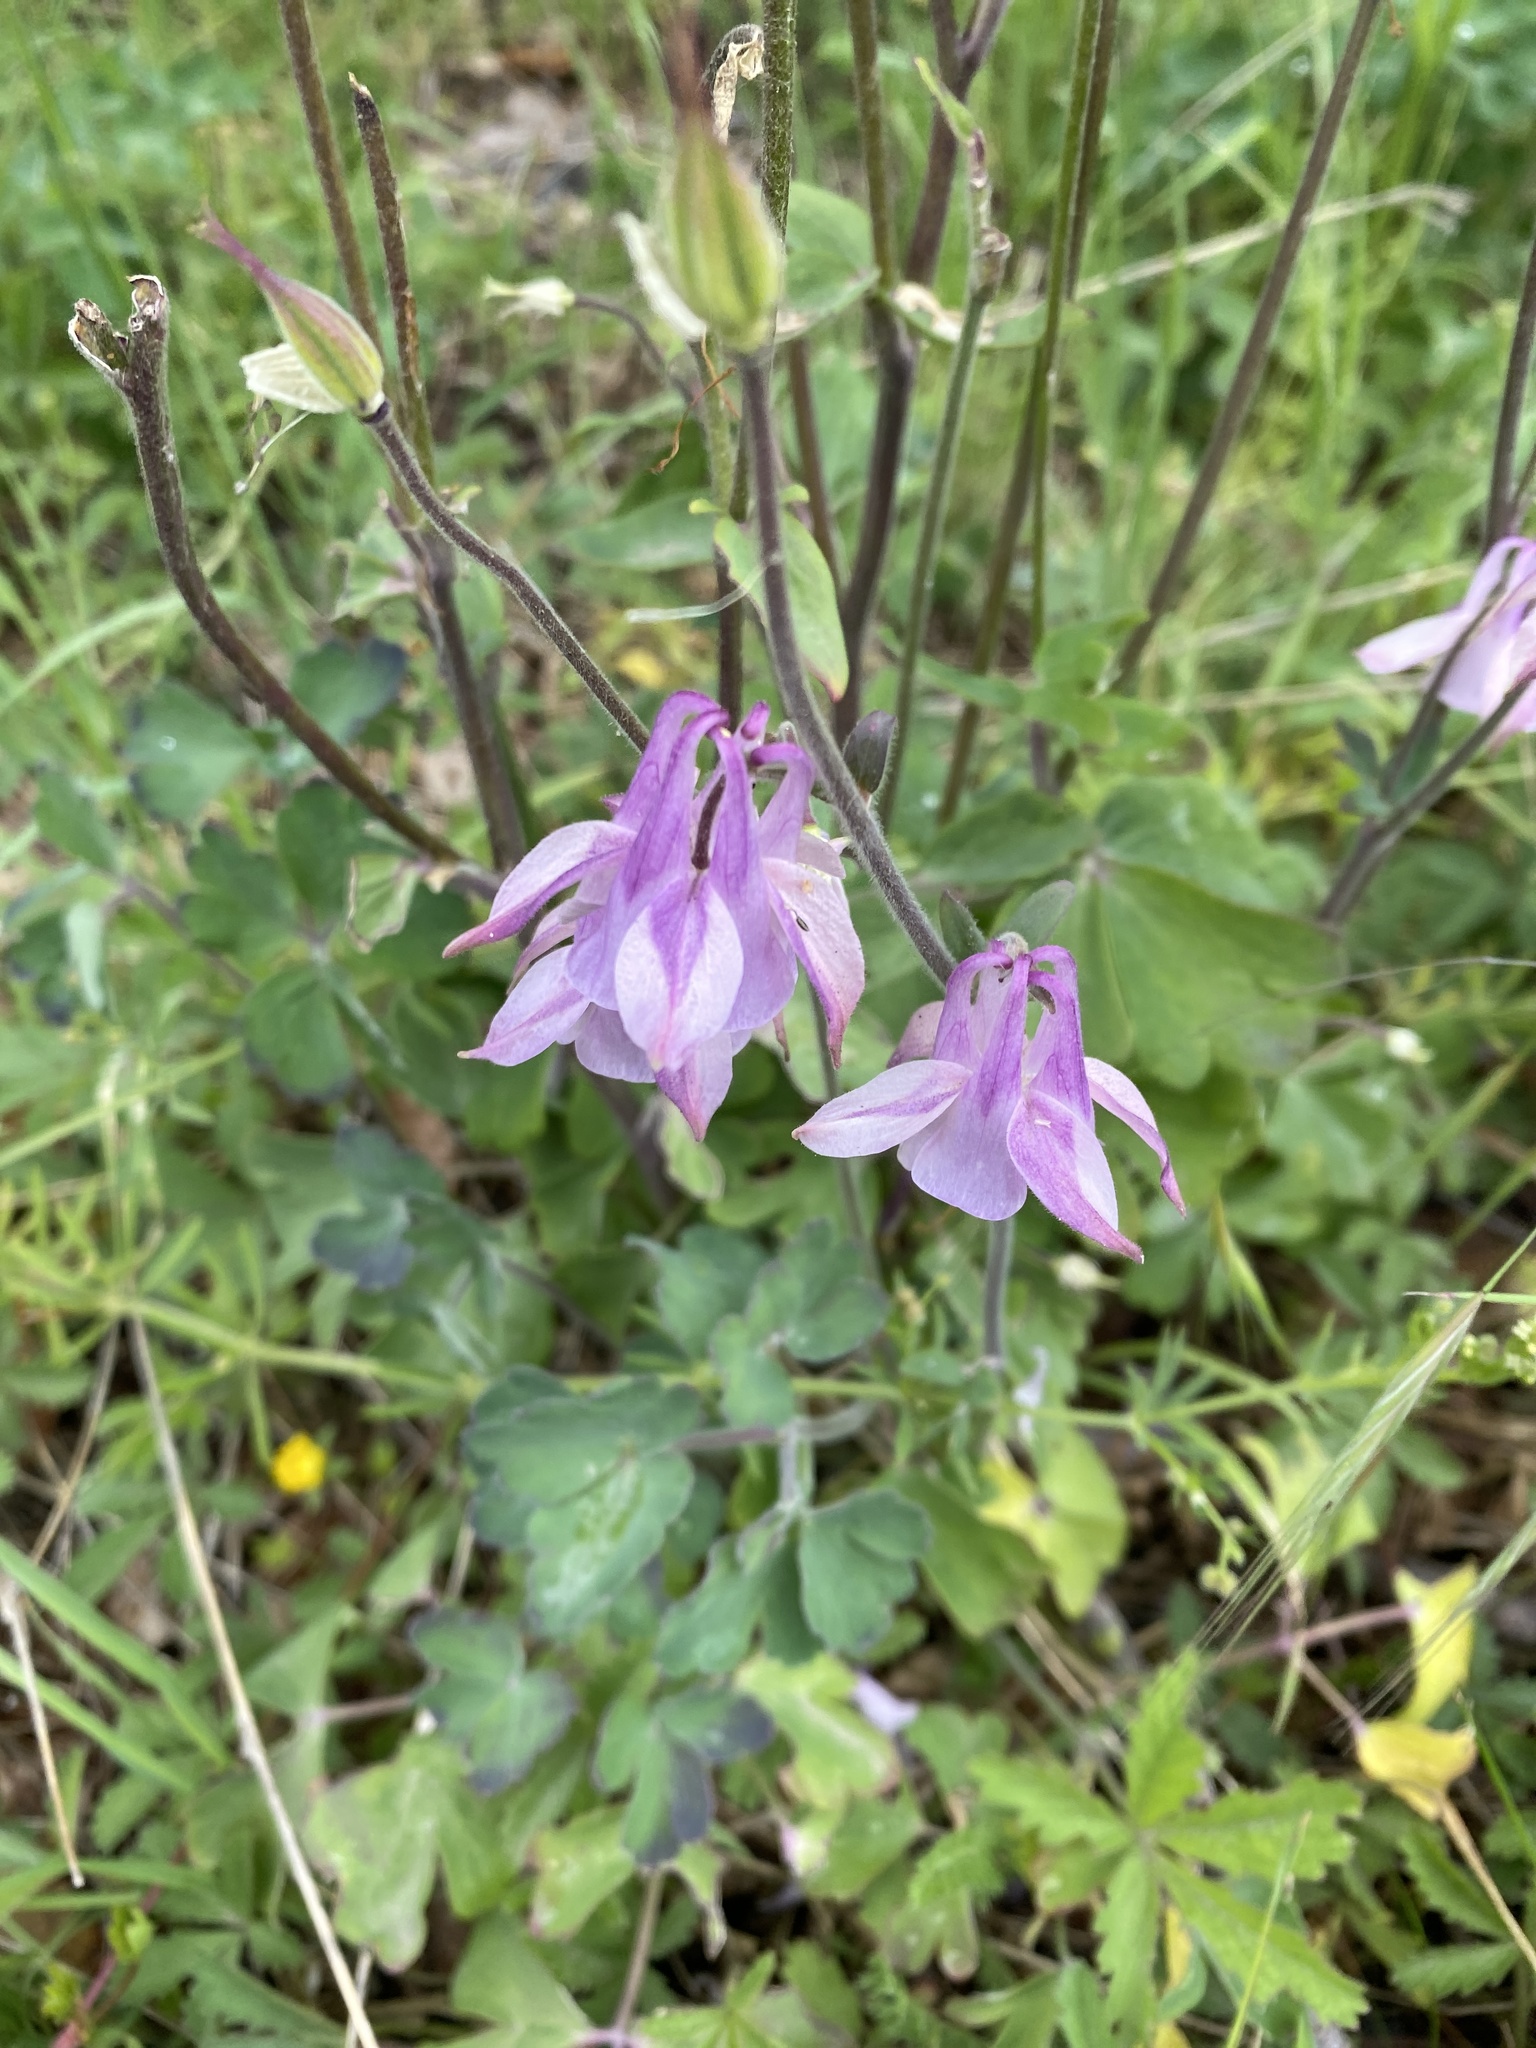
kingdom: Plantae
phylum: Tracheophyta
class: Magnoliopsida
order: Ranunculales
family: Ranunculaceae
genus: Aquilegia
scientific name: Aquilegia vulgaris
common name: Columbine
